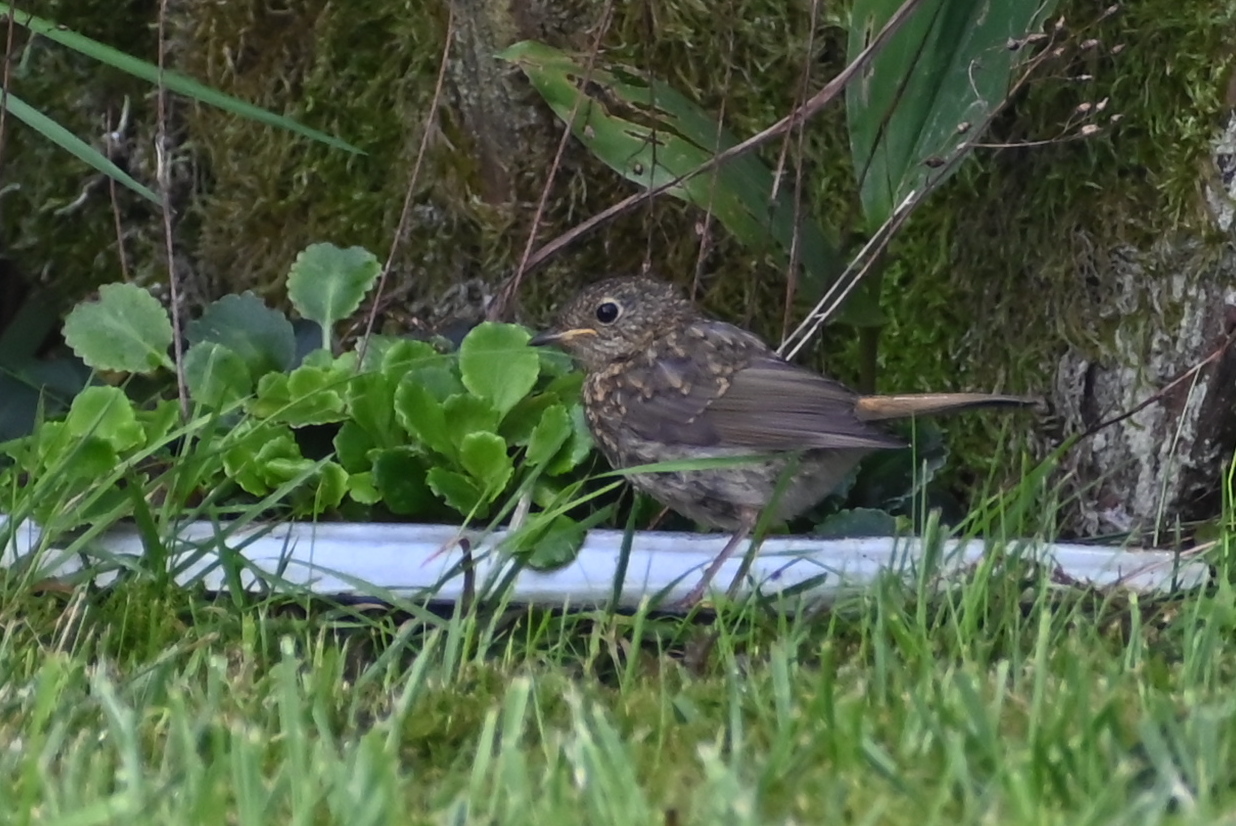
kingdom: Animalia
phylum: Chordata
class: Aves
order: Passeriformes
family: Muscicapidae
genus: Erithacus
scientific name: Erithacus rubecula
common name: European robin
